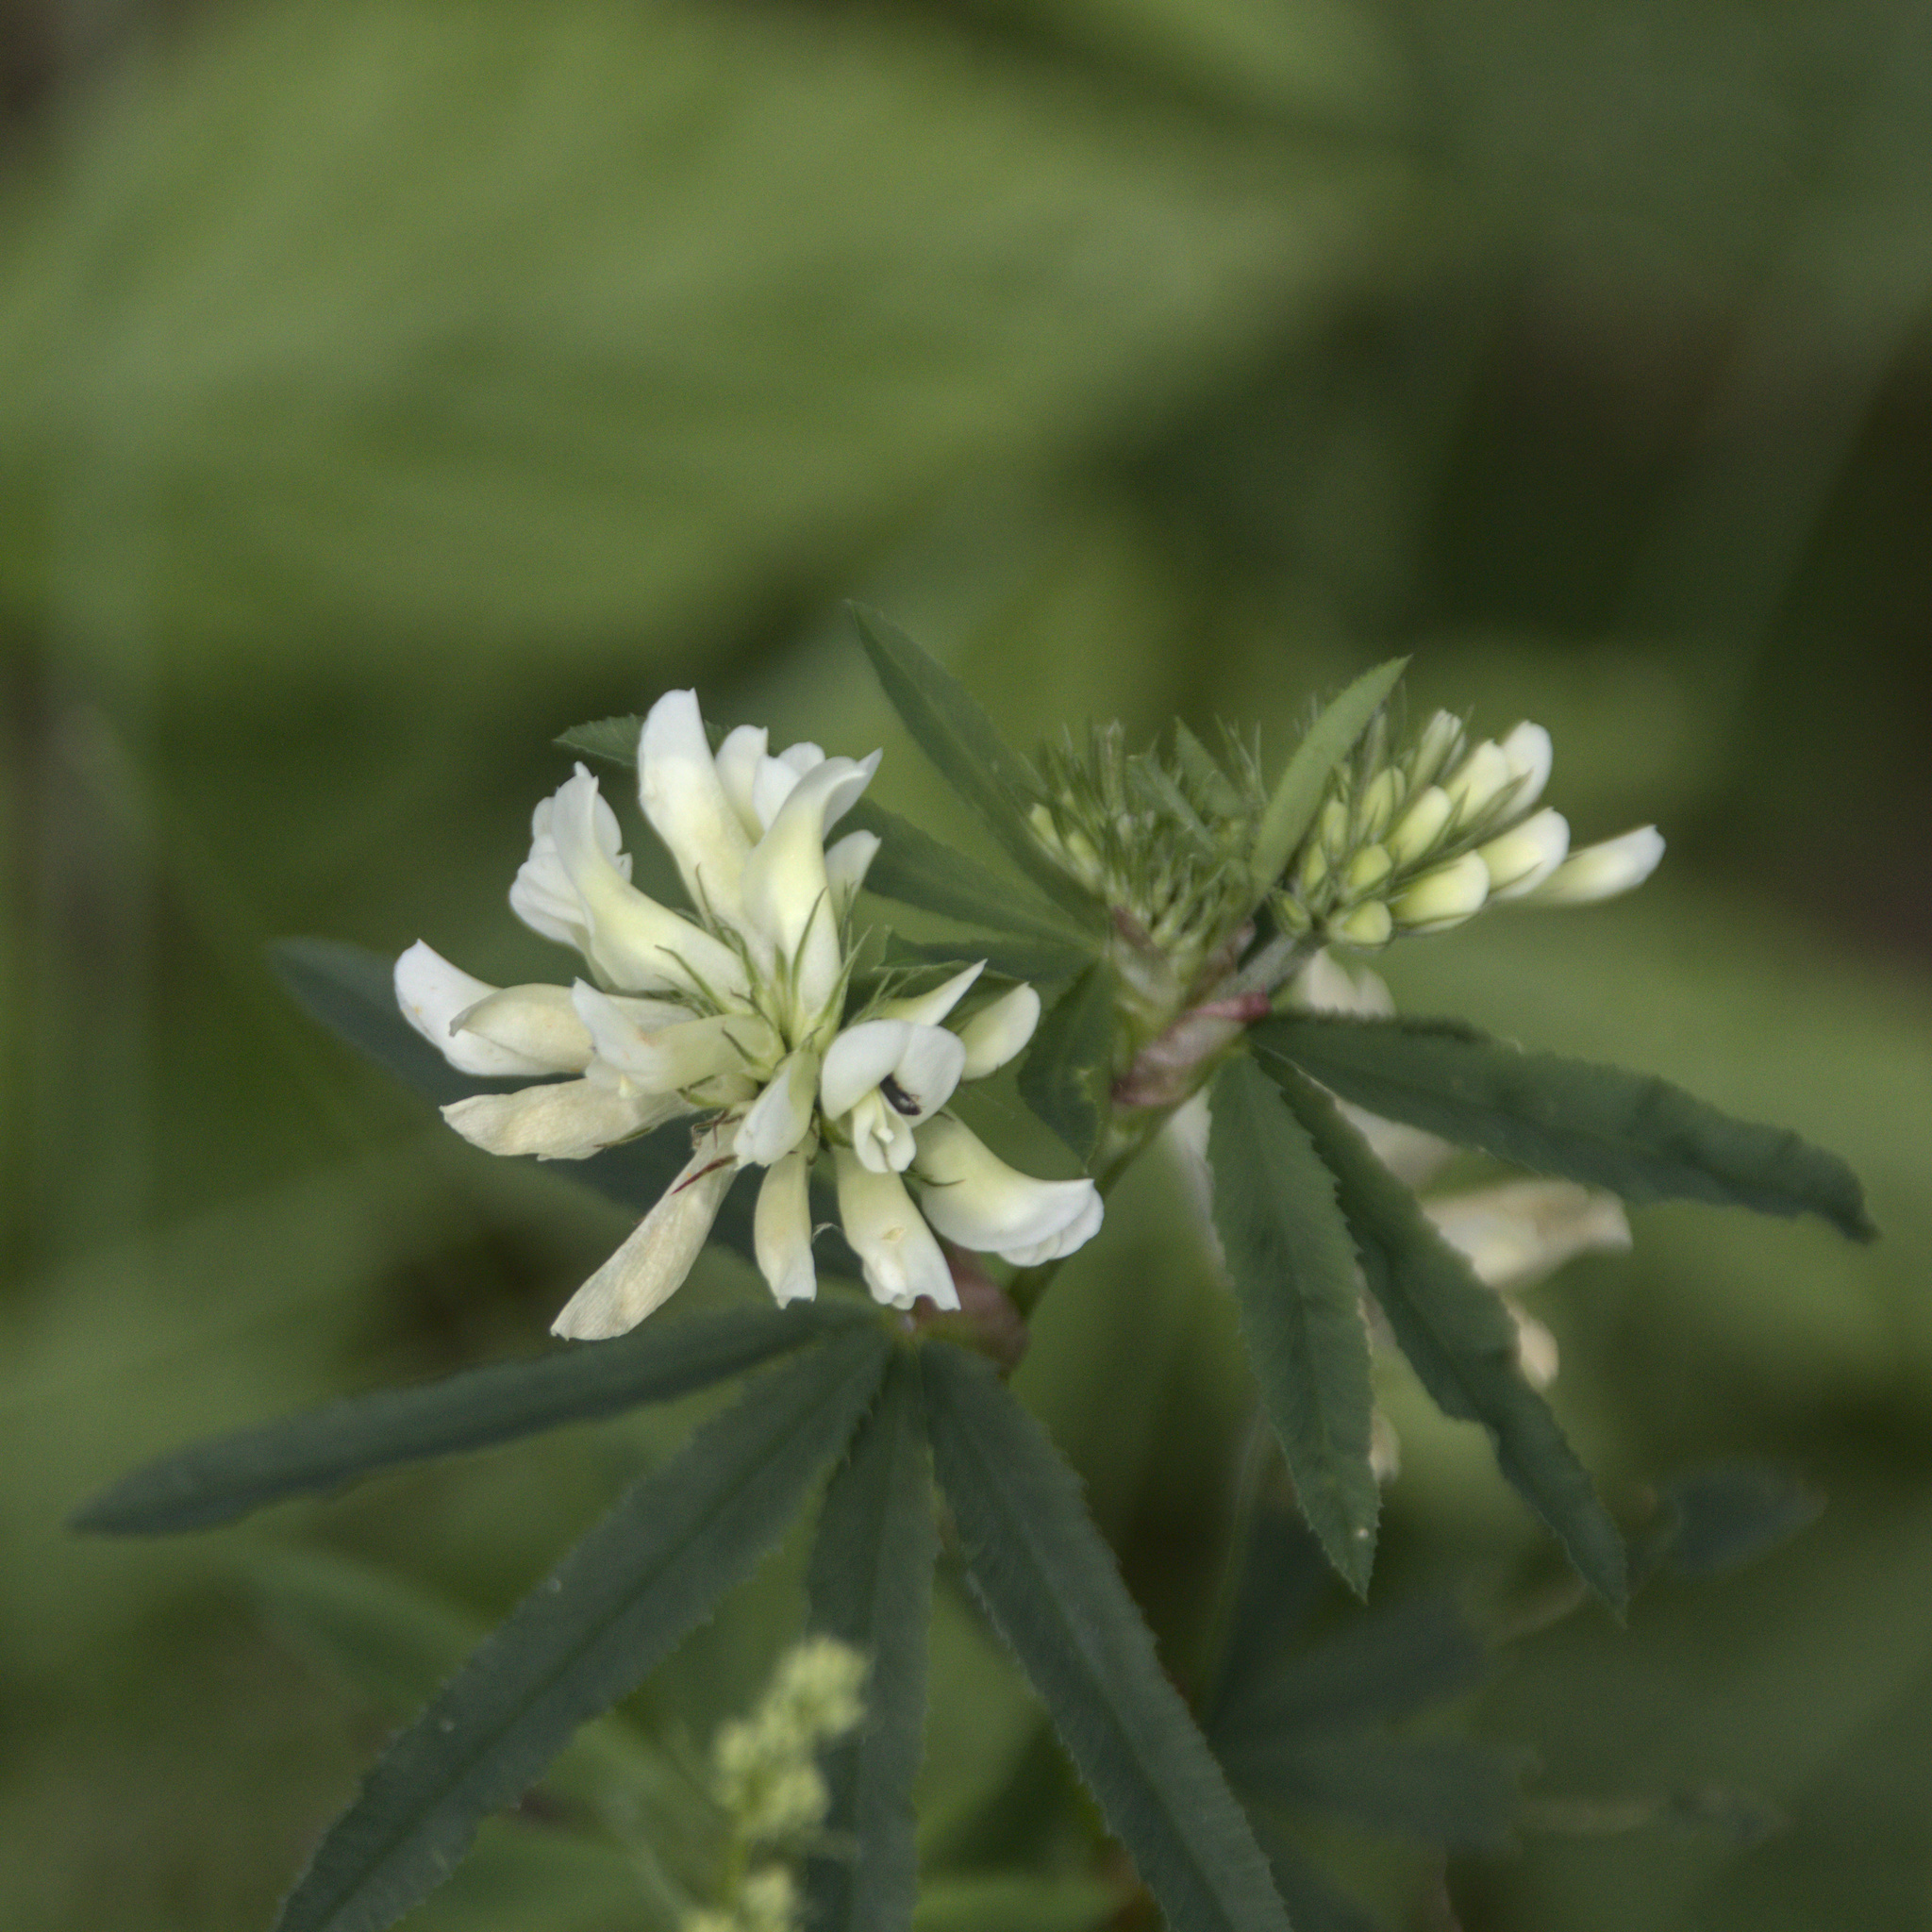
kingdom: Plantae
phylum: Tracheophyta
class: Magnoliopsida
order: Fabales
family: Fabaceae
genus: Trifolium
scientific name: Trifolium lupinaster
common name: Lupine clover
